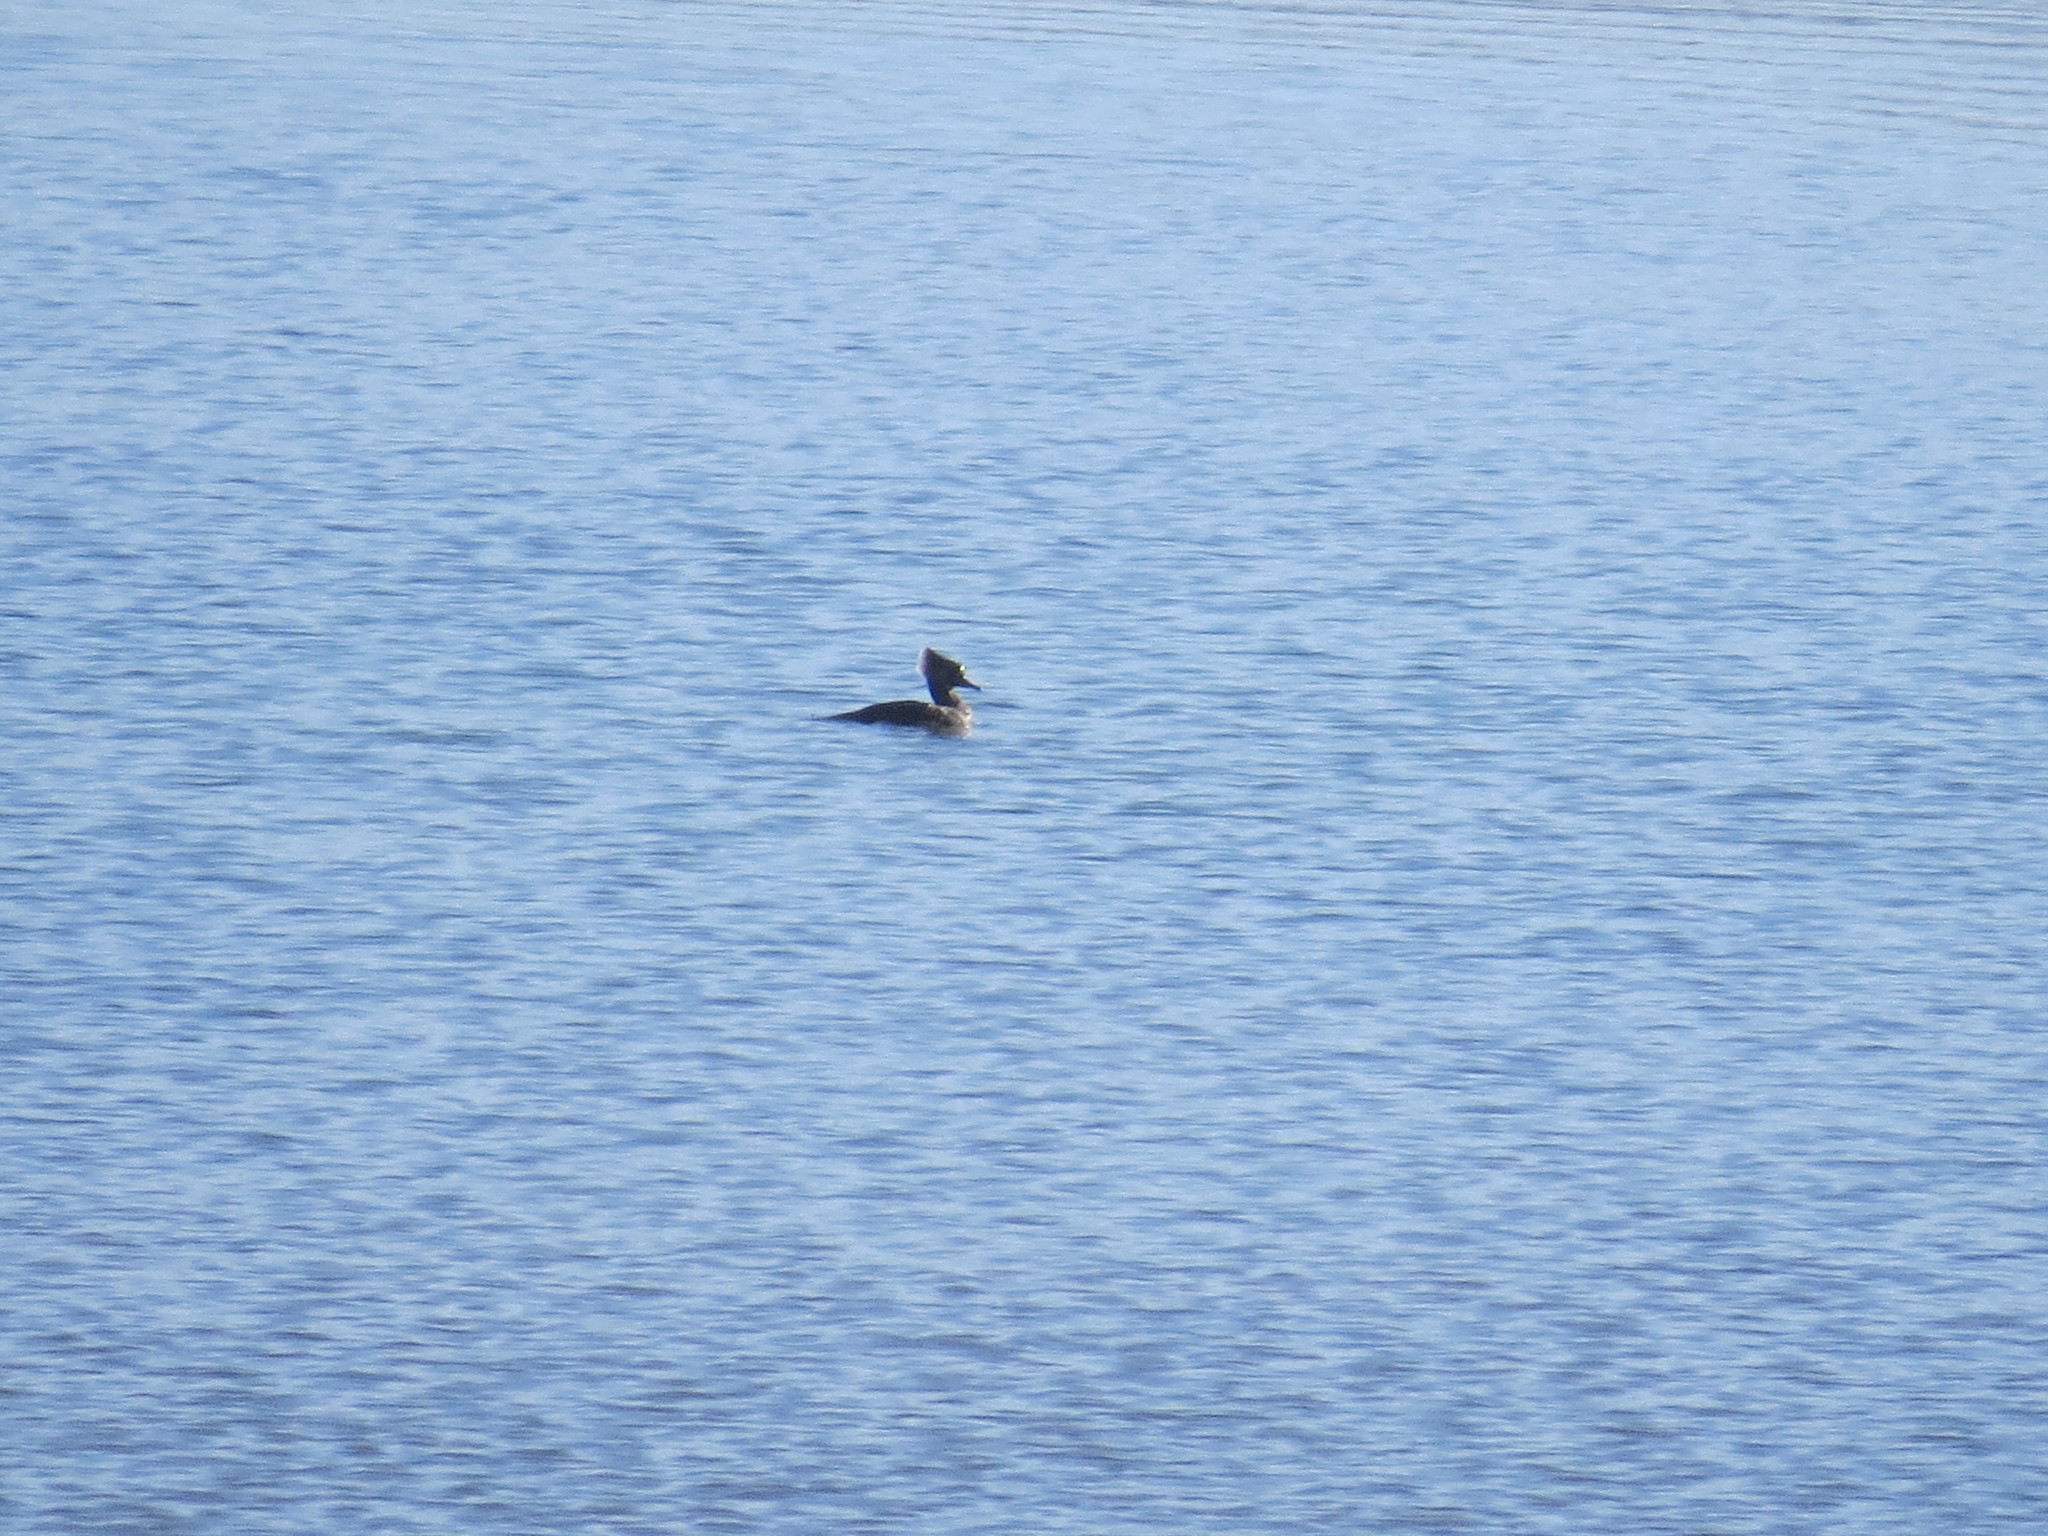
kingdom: Animalia
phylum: Chordata
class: Aves
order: Anseriformes
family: Anatidae
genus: Lophodytes
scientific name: Lophodytes cucullatus
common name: Hooded merganser
